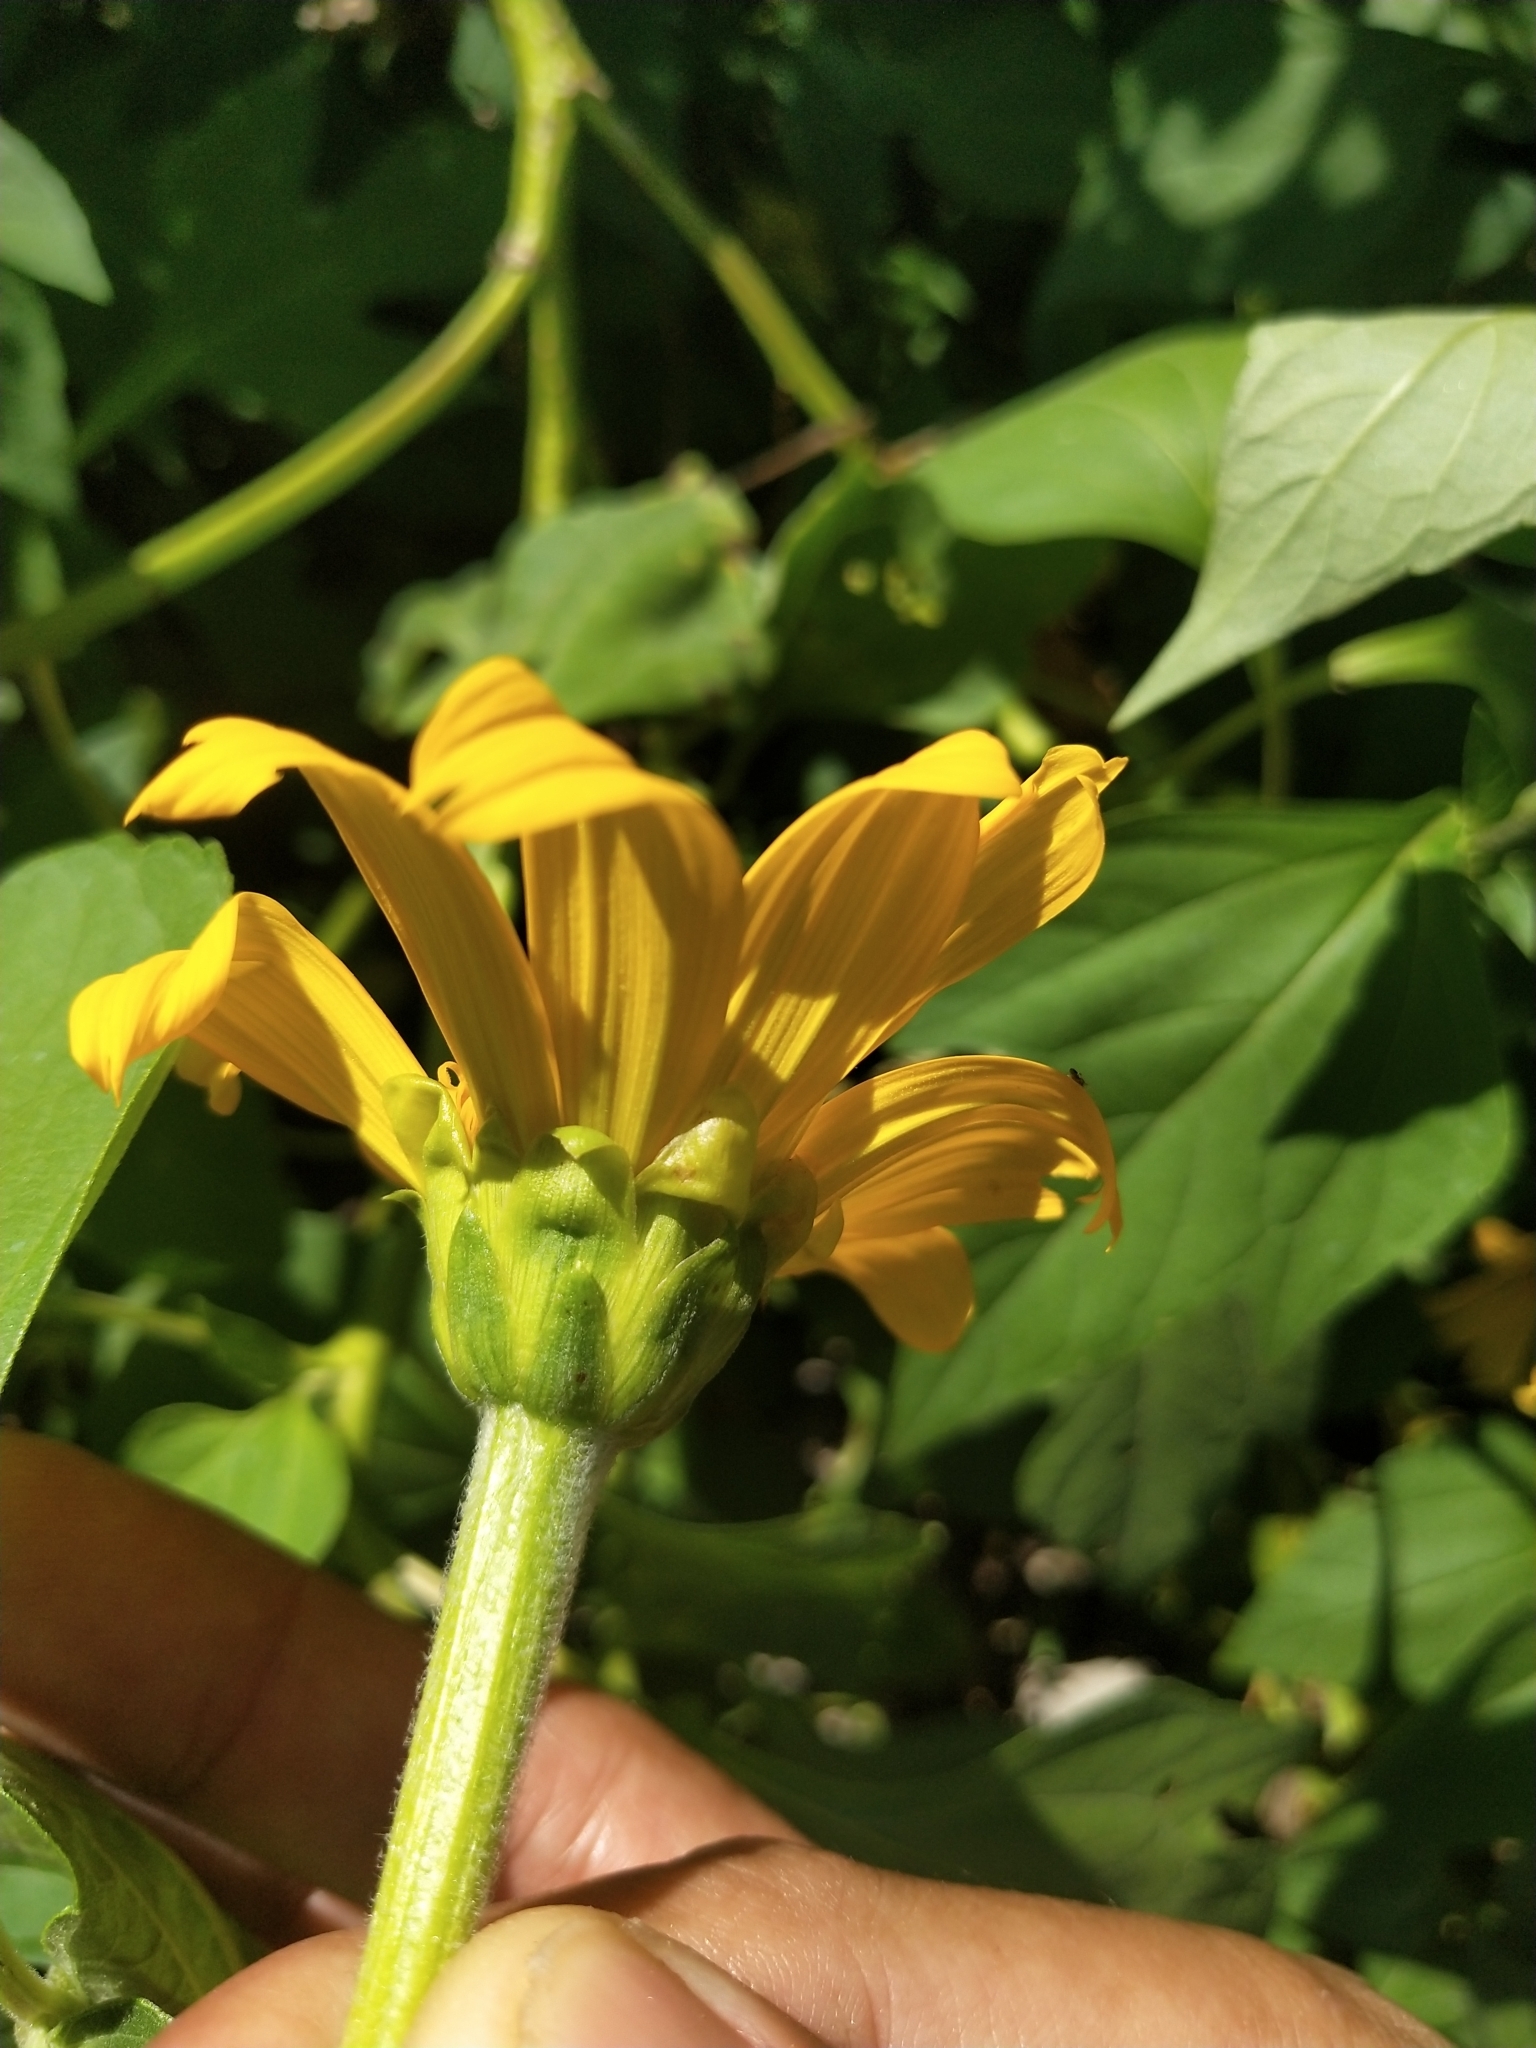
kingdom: Plantae
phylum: Tracheophyta
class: Magnoliopsida
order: Asterales
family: Asteraceae
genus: Tithonia
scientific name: Tithonia diversifolia
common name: Tree marigold
